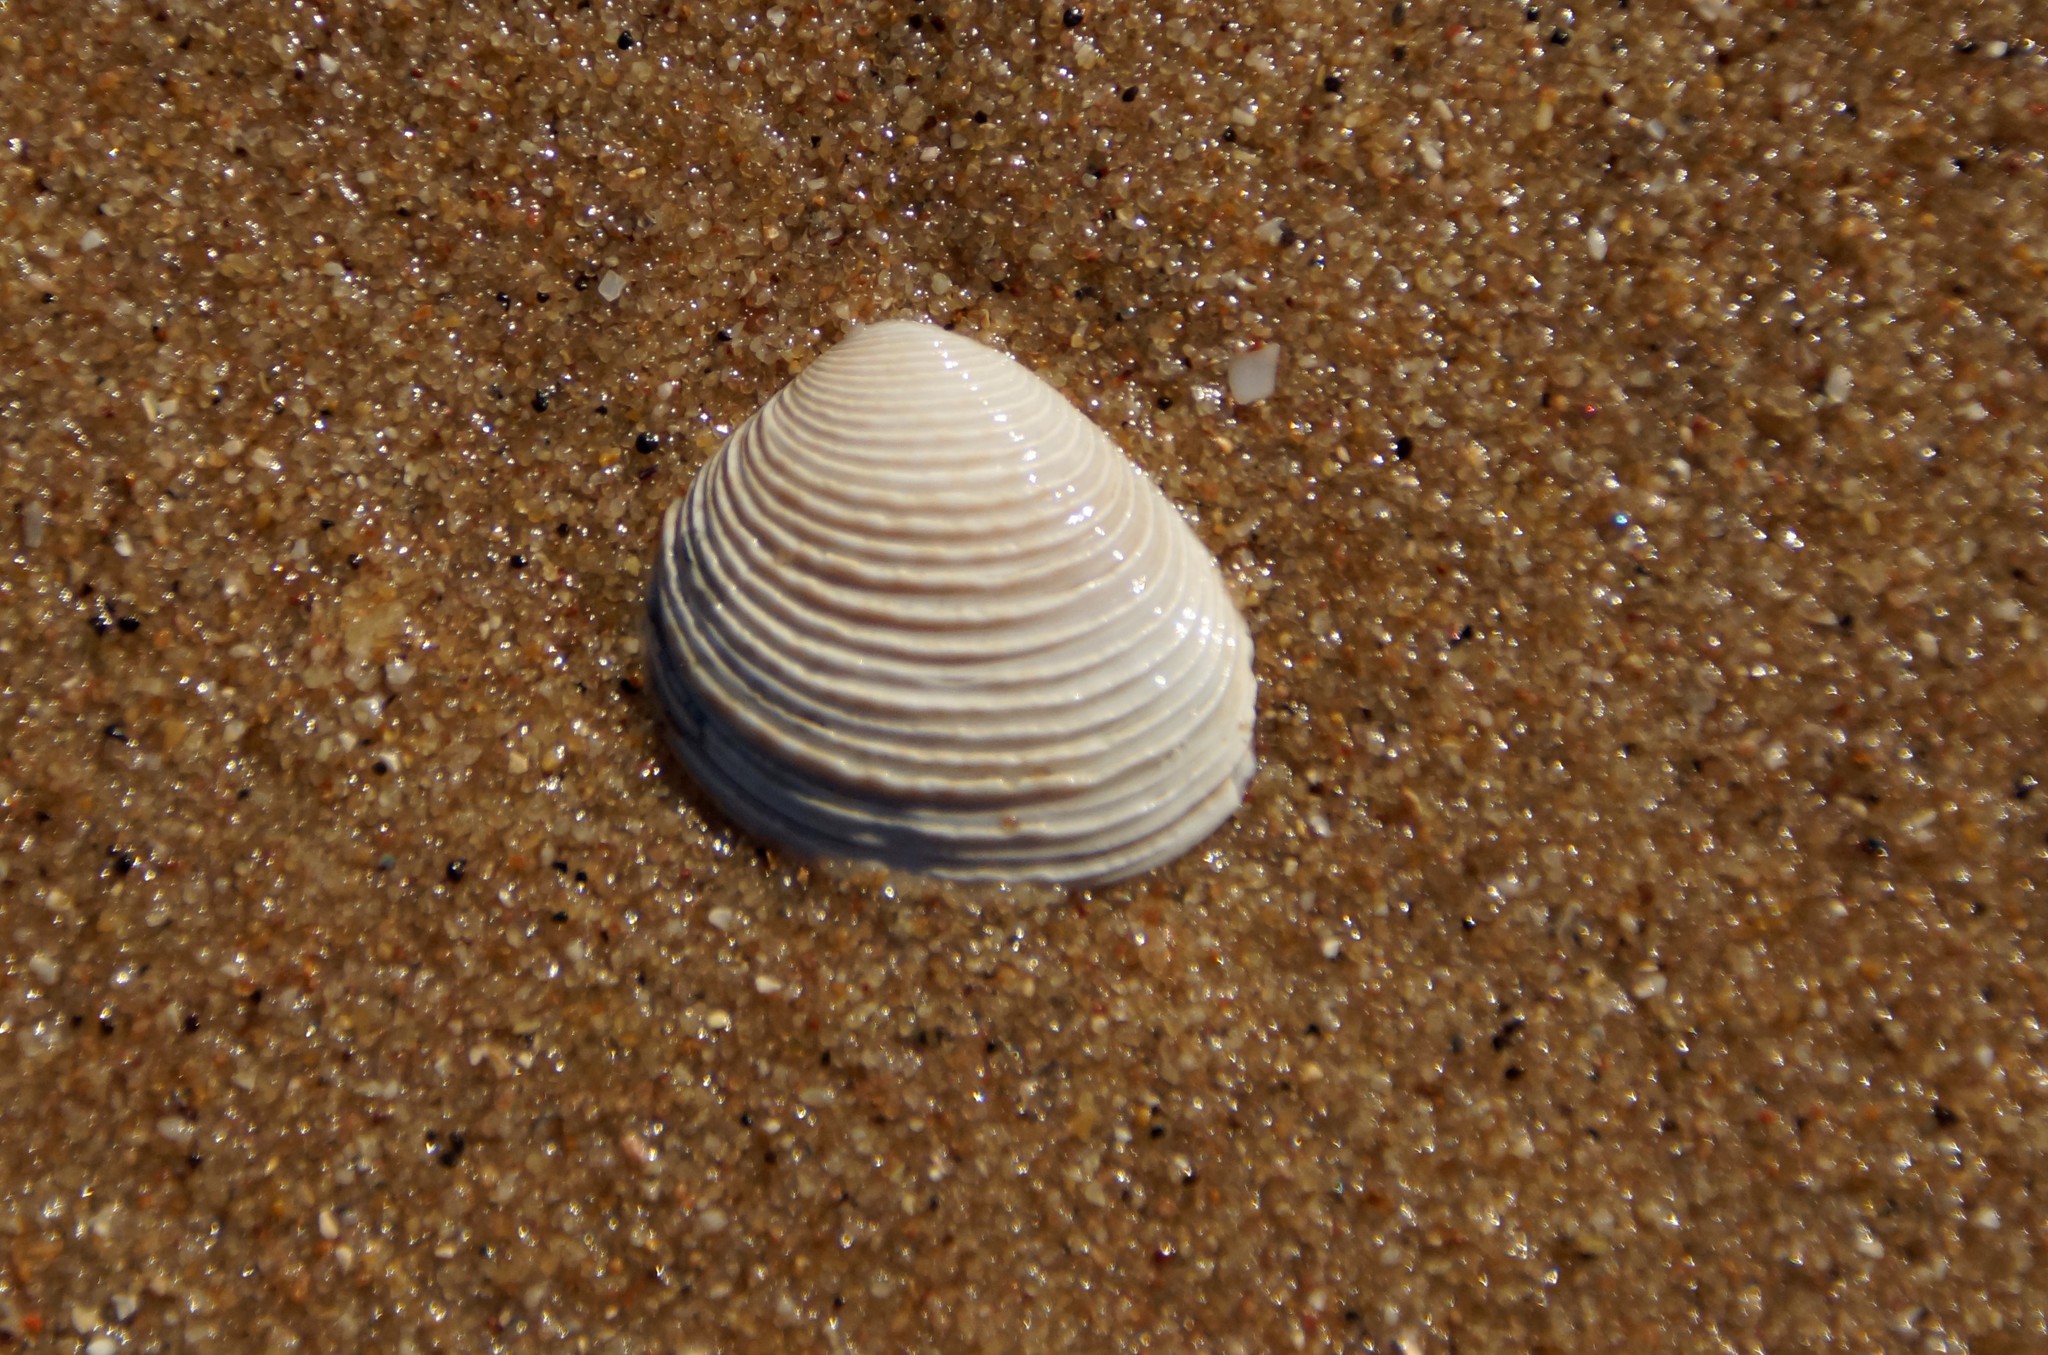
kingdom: Animalia
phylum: Mollusca
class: Bivalvia
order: Venerida
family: Veneridae
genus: Katelysia
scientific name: Katelysia scalarina
